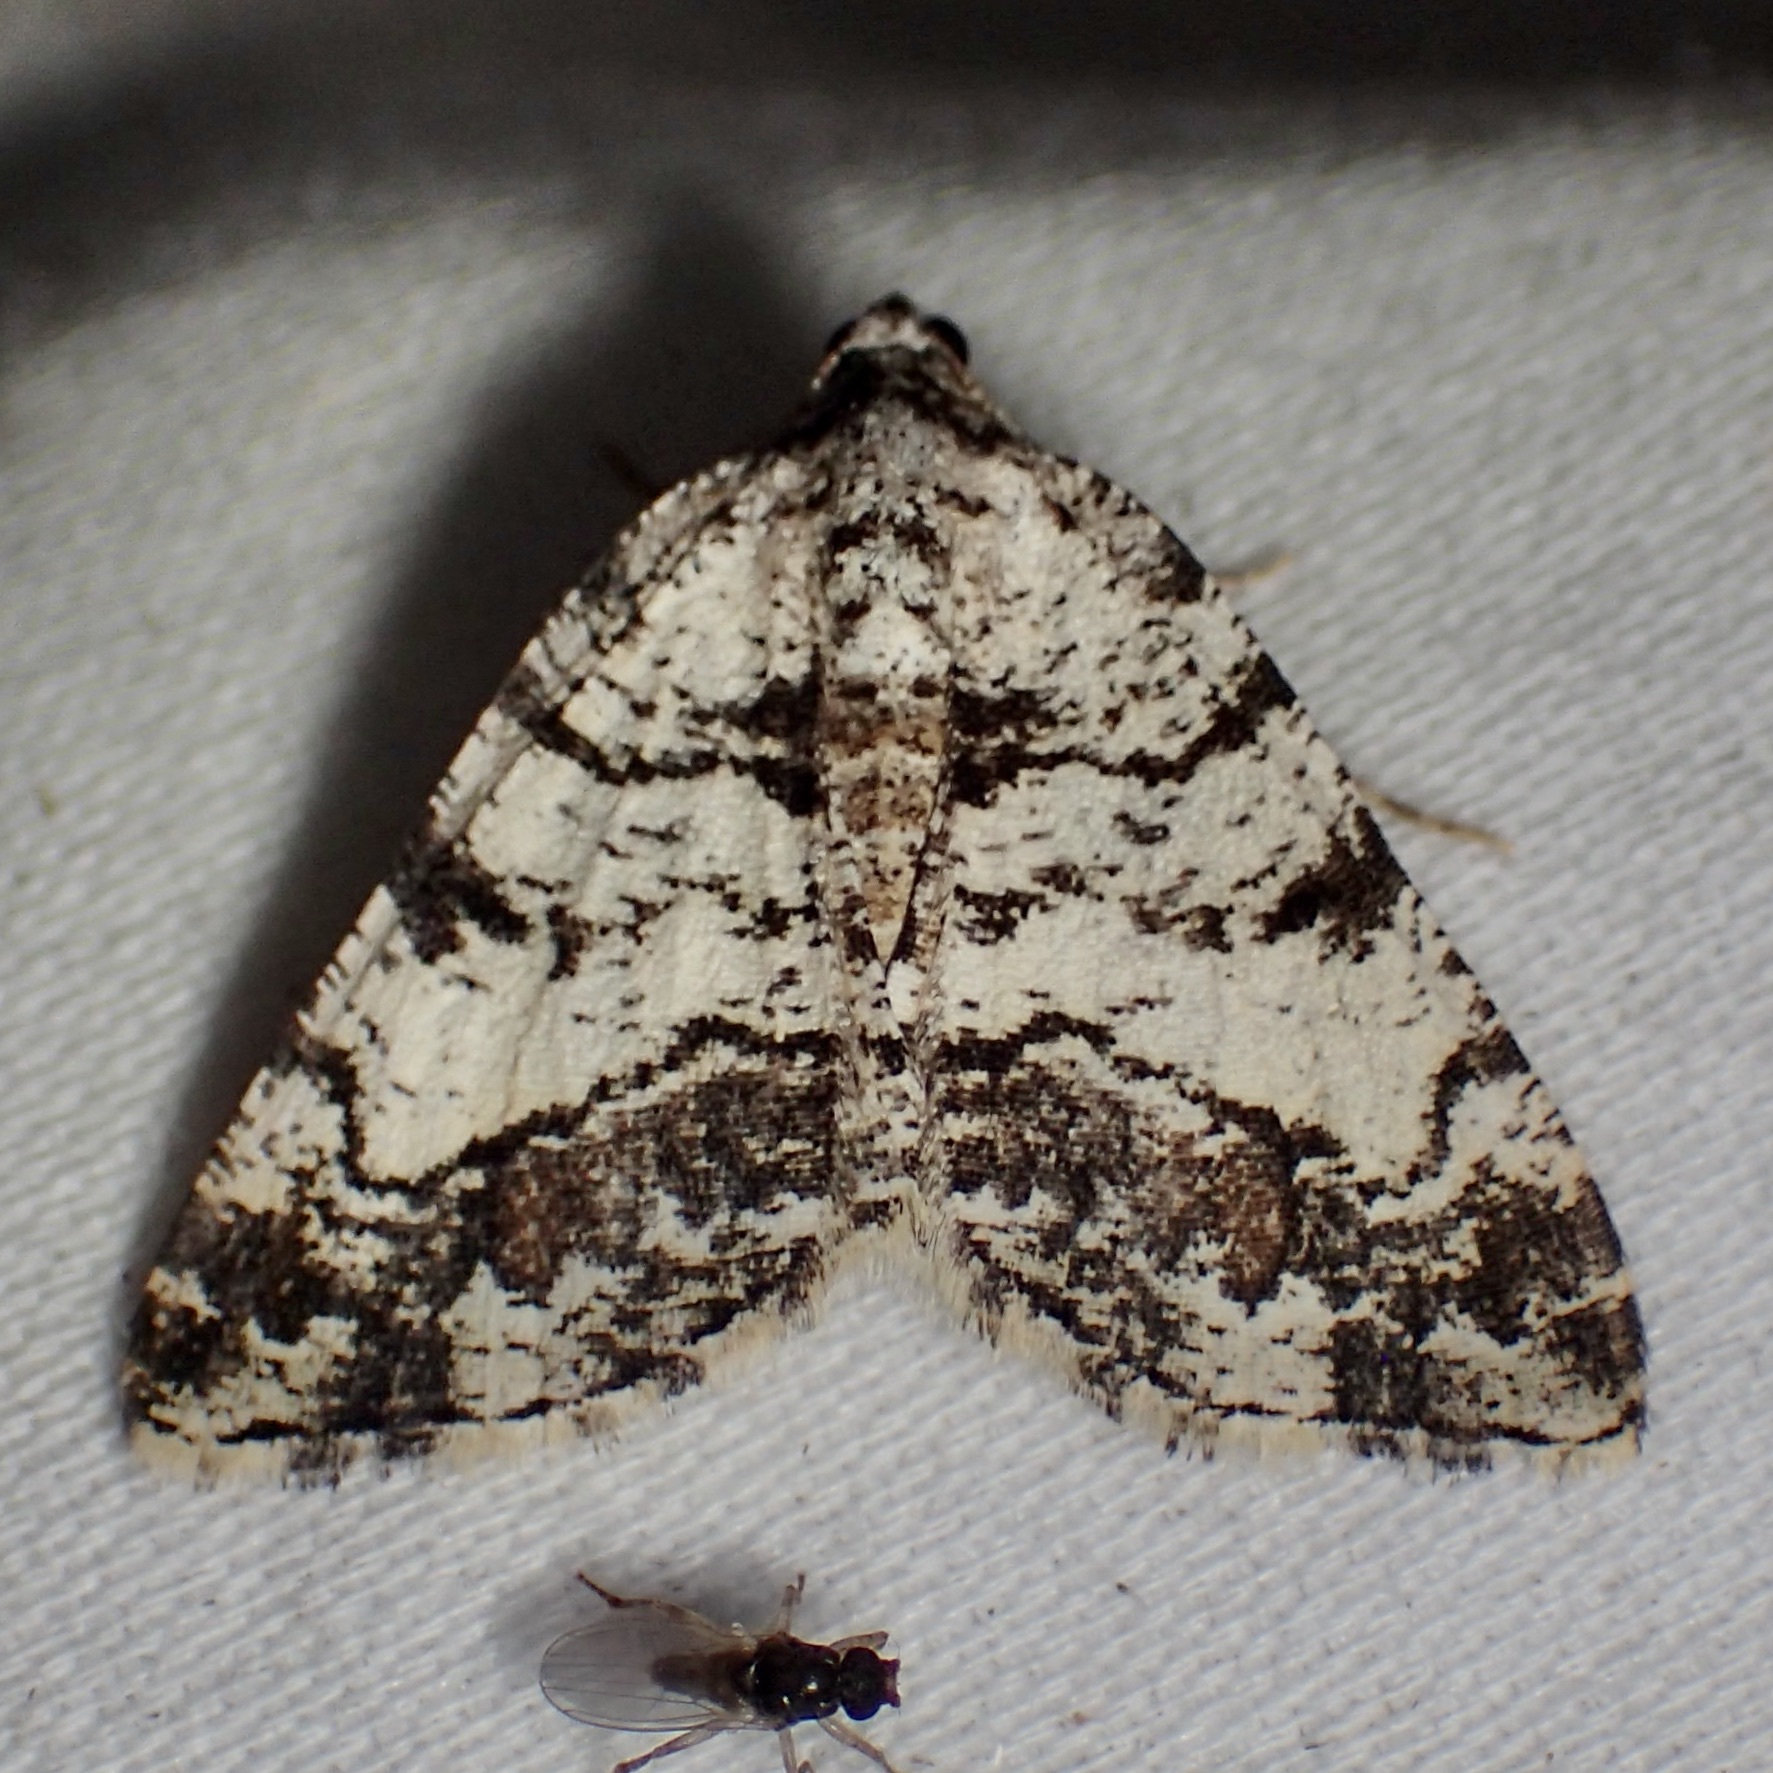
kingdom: Animalia
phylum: Arthropoda
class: Insecta
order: Lepidoptera
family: Geometridae
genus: Macaria
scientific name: Macaria deceptrix
